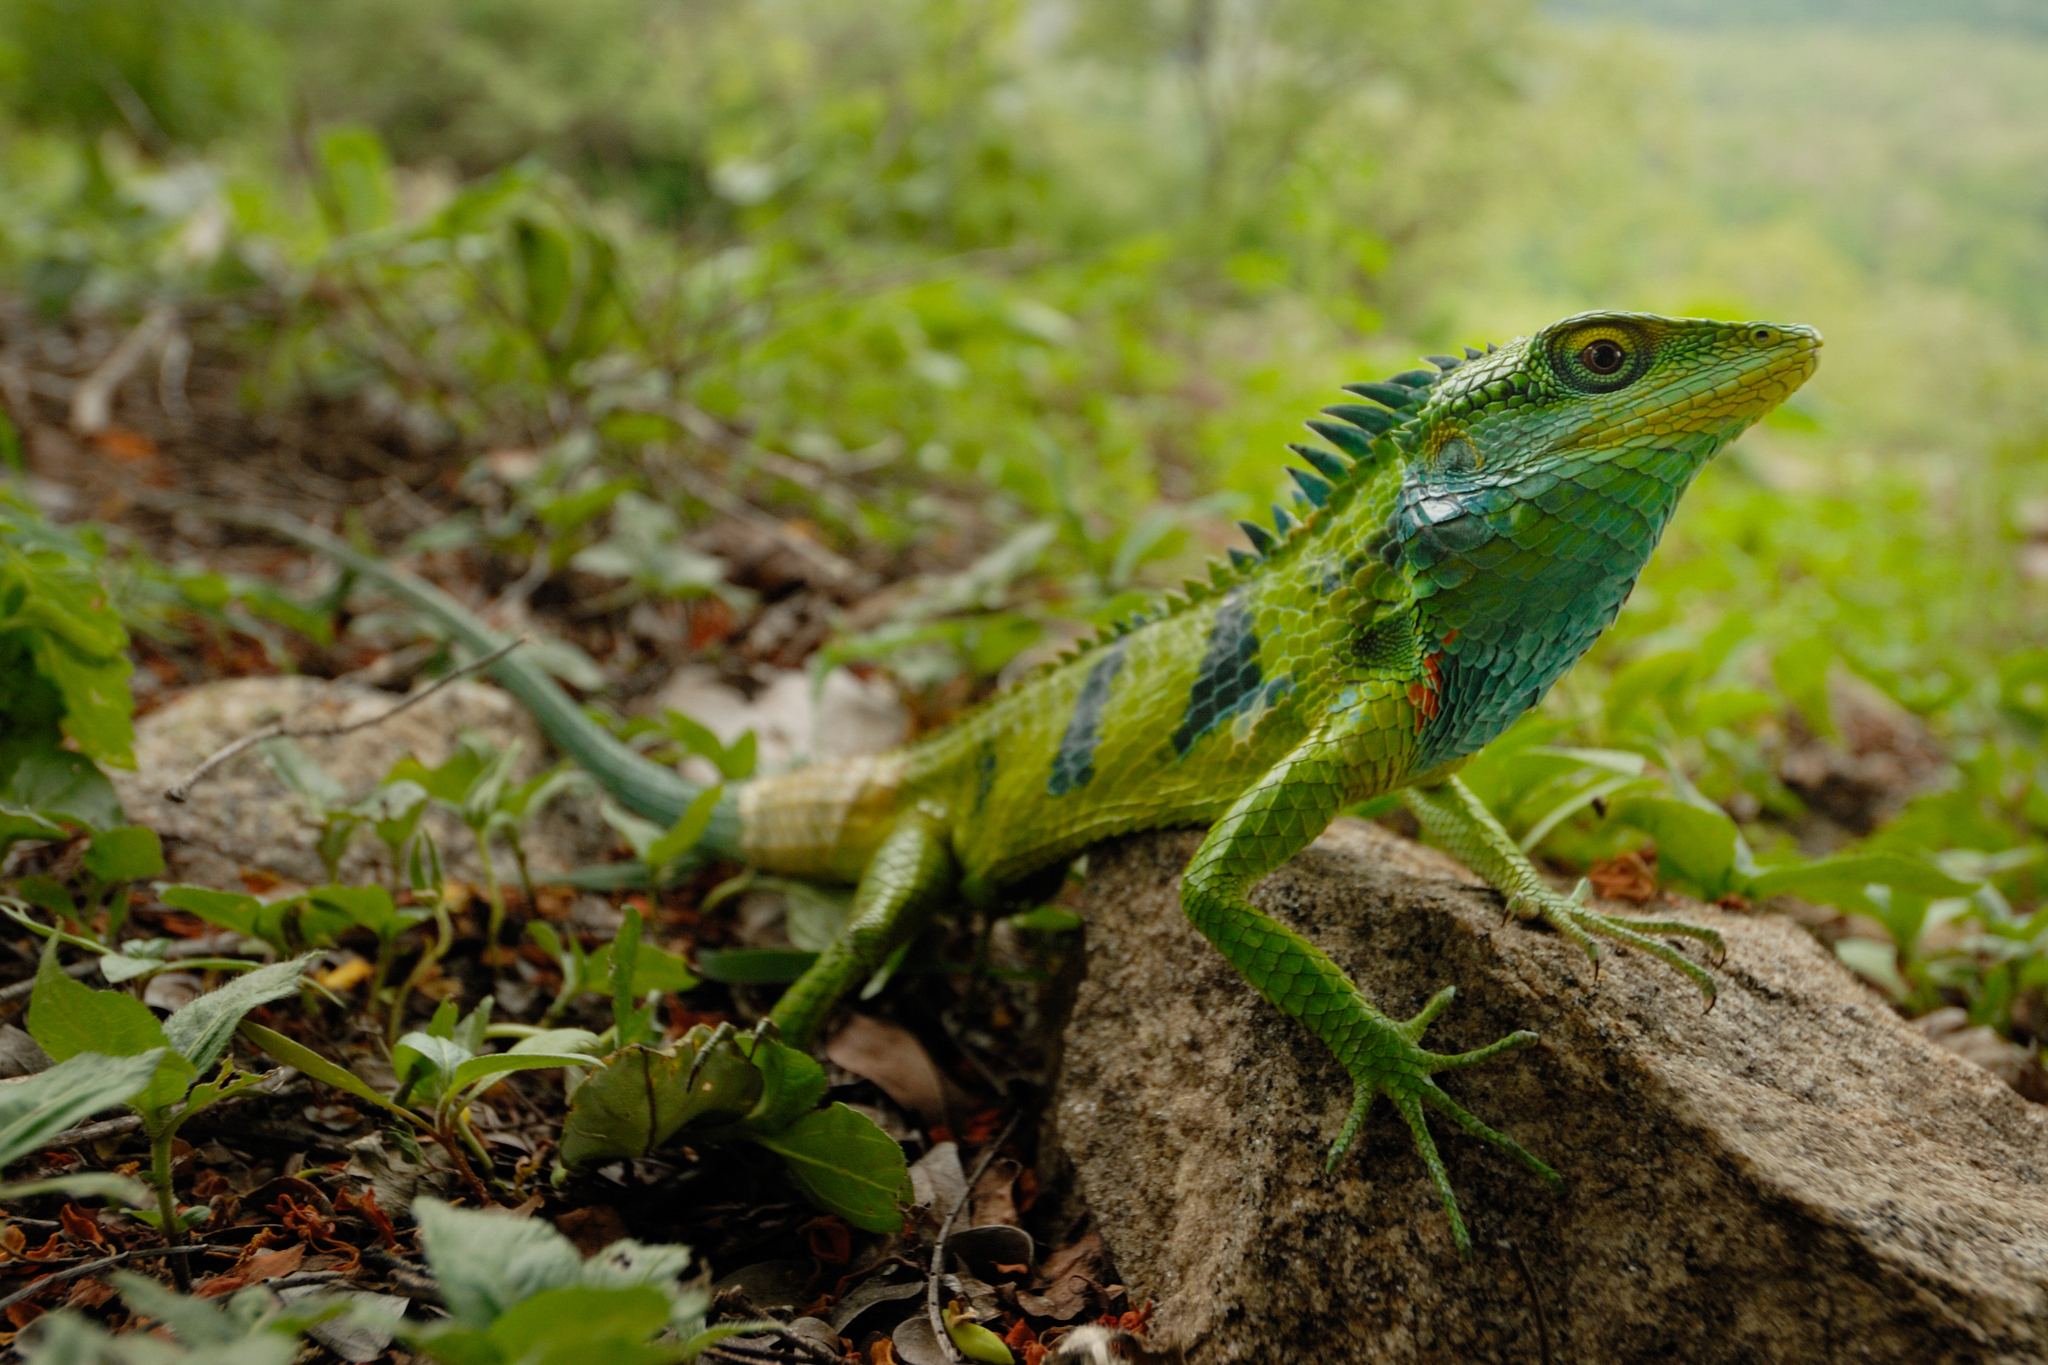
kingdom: Animalia
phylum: Chordata
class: Squamata
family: Agamidae
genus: Calotes
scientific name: Calotes grandisquamis
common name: Big scaled variable lizard
